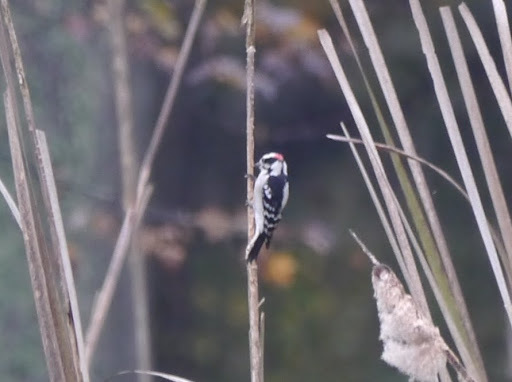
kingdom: Animalia
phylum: Chordata
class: Aves
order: Piciformes
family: Picidae
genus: Dryobates
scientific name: Dryobates pubescens
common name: Downy woodpecker
